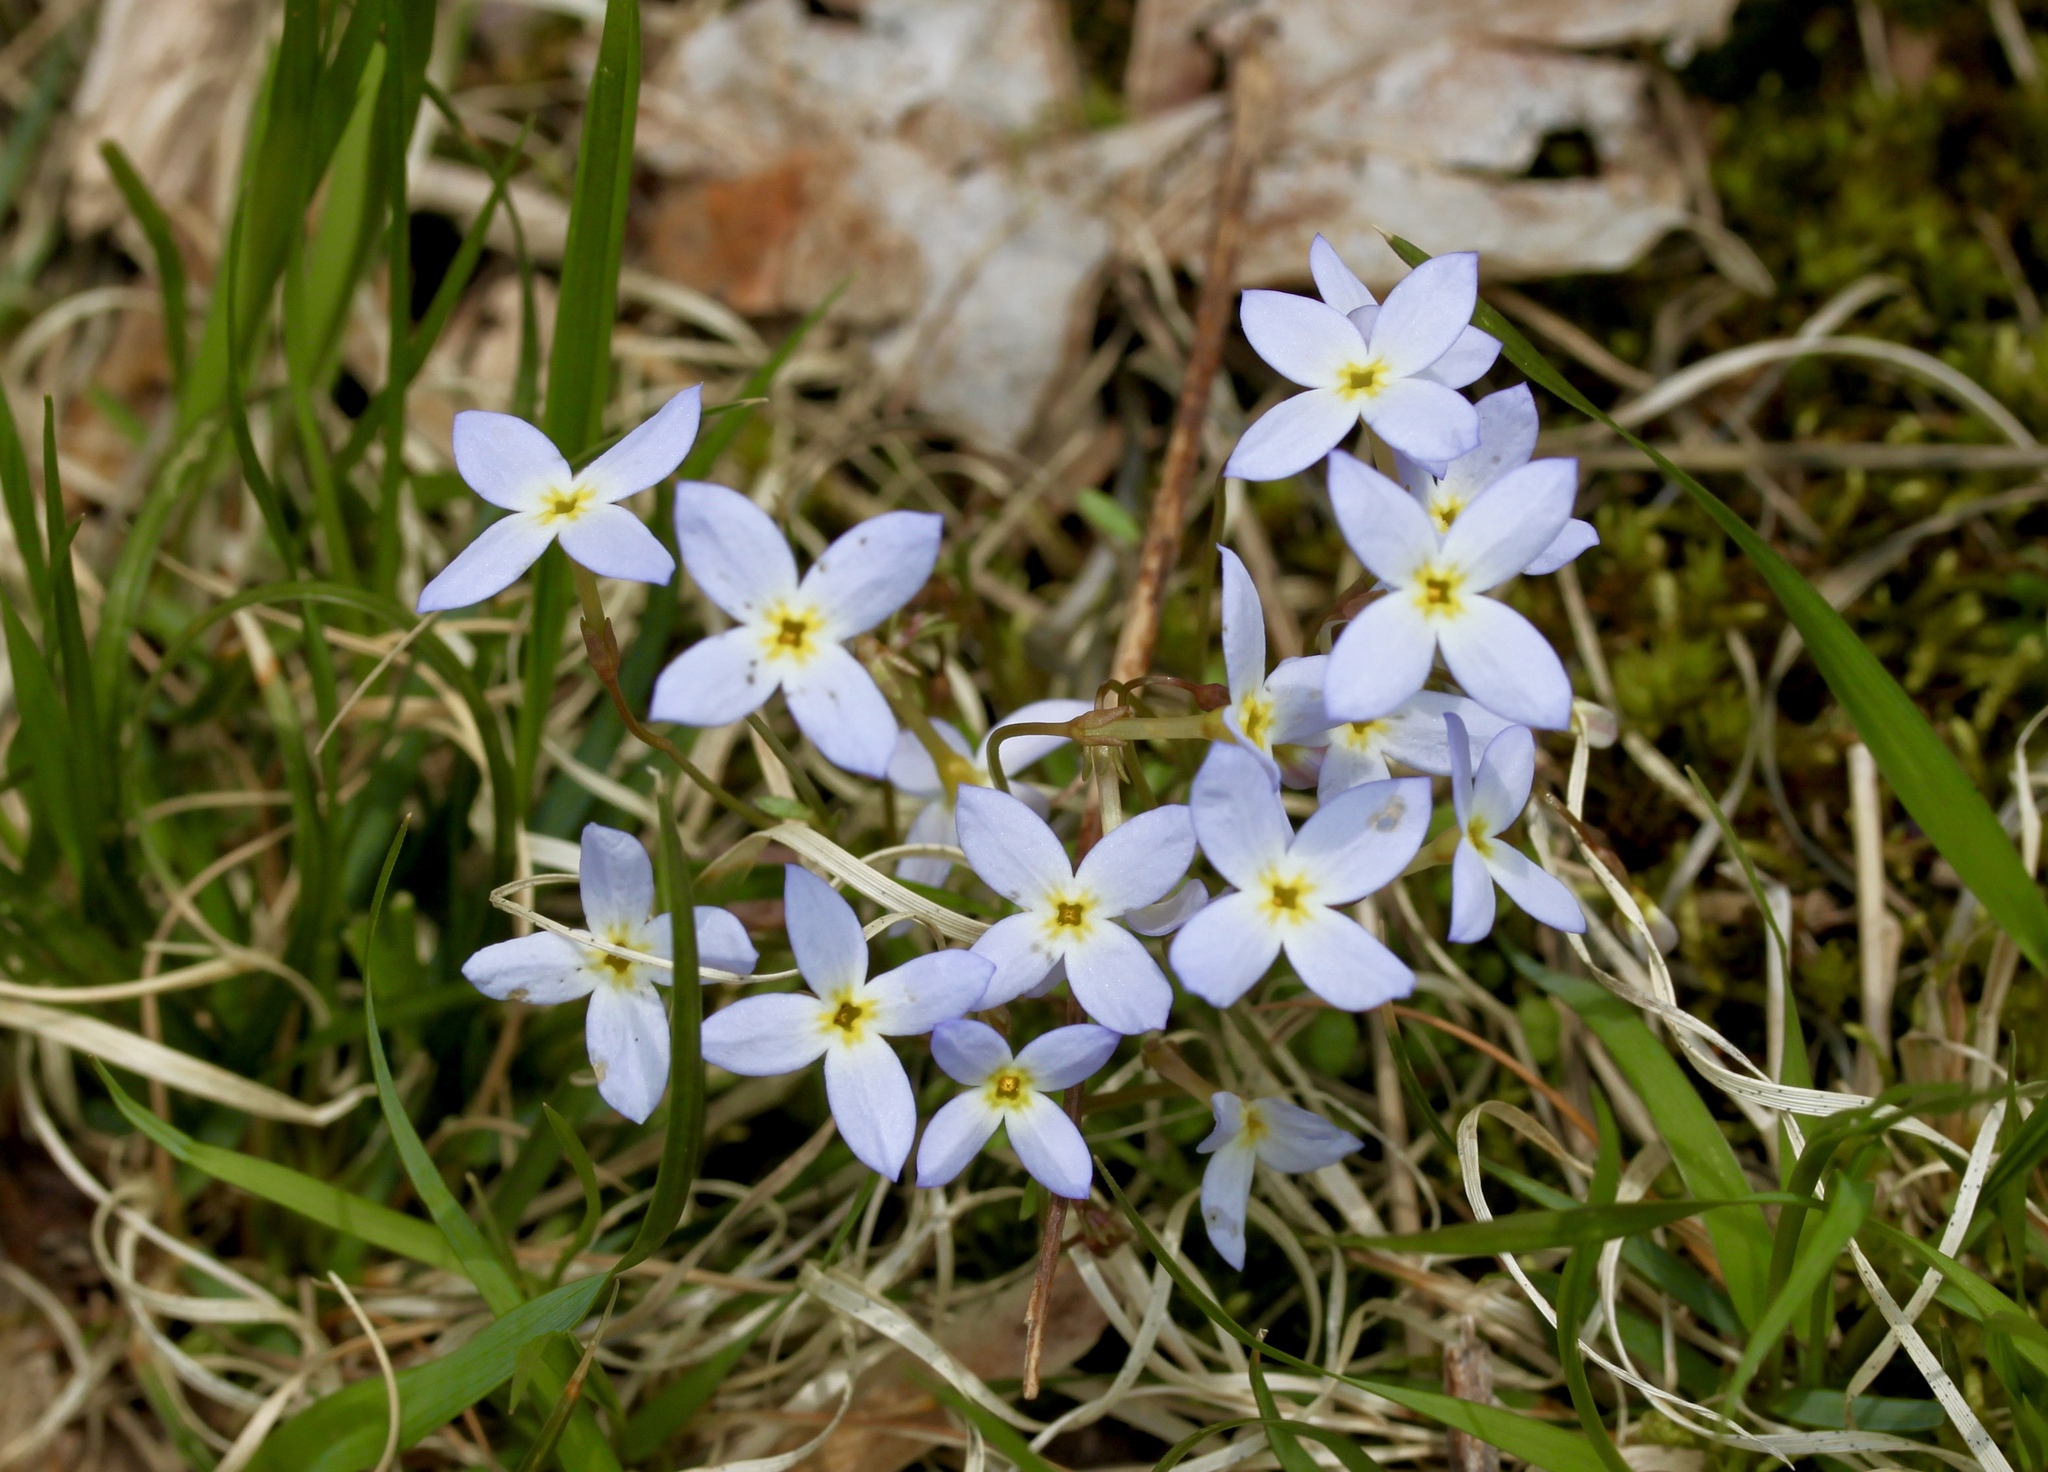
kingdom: Plantae
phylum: Tracheophyta
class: Magnoliopsida
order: Gentianales
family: Rubiaceae
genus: Houstonia
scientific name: Houstonia caerulea
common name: Bluets
